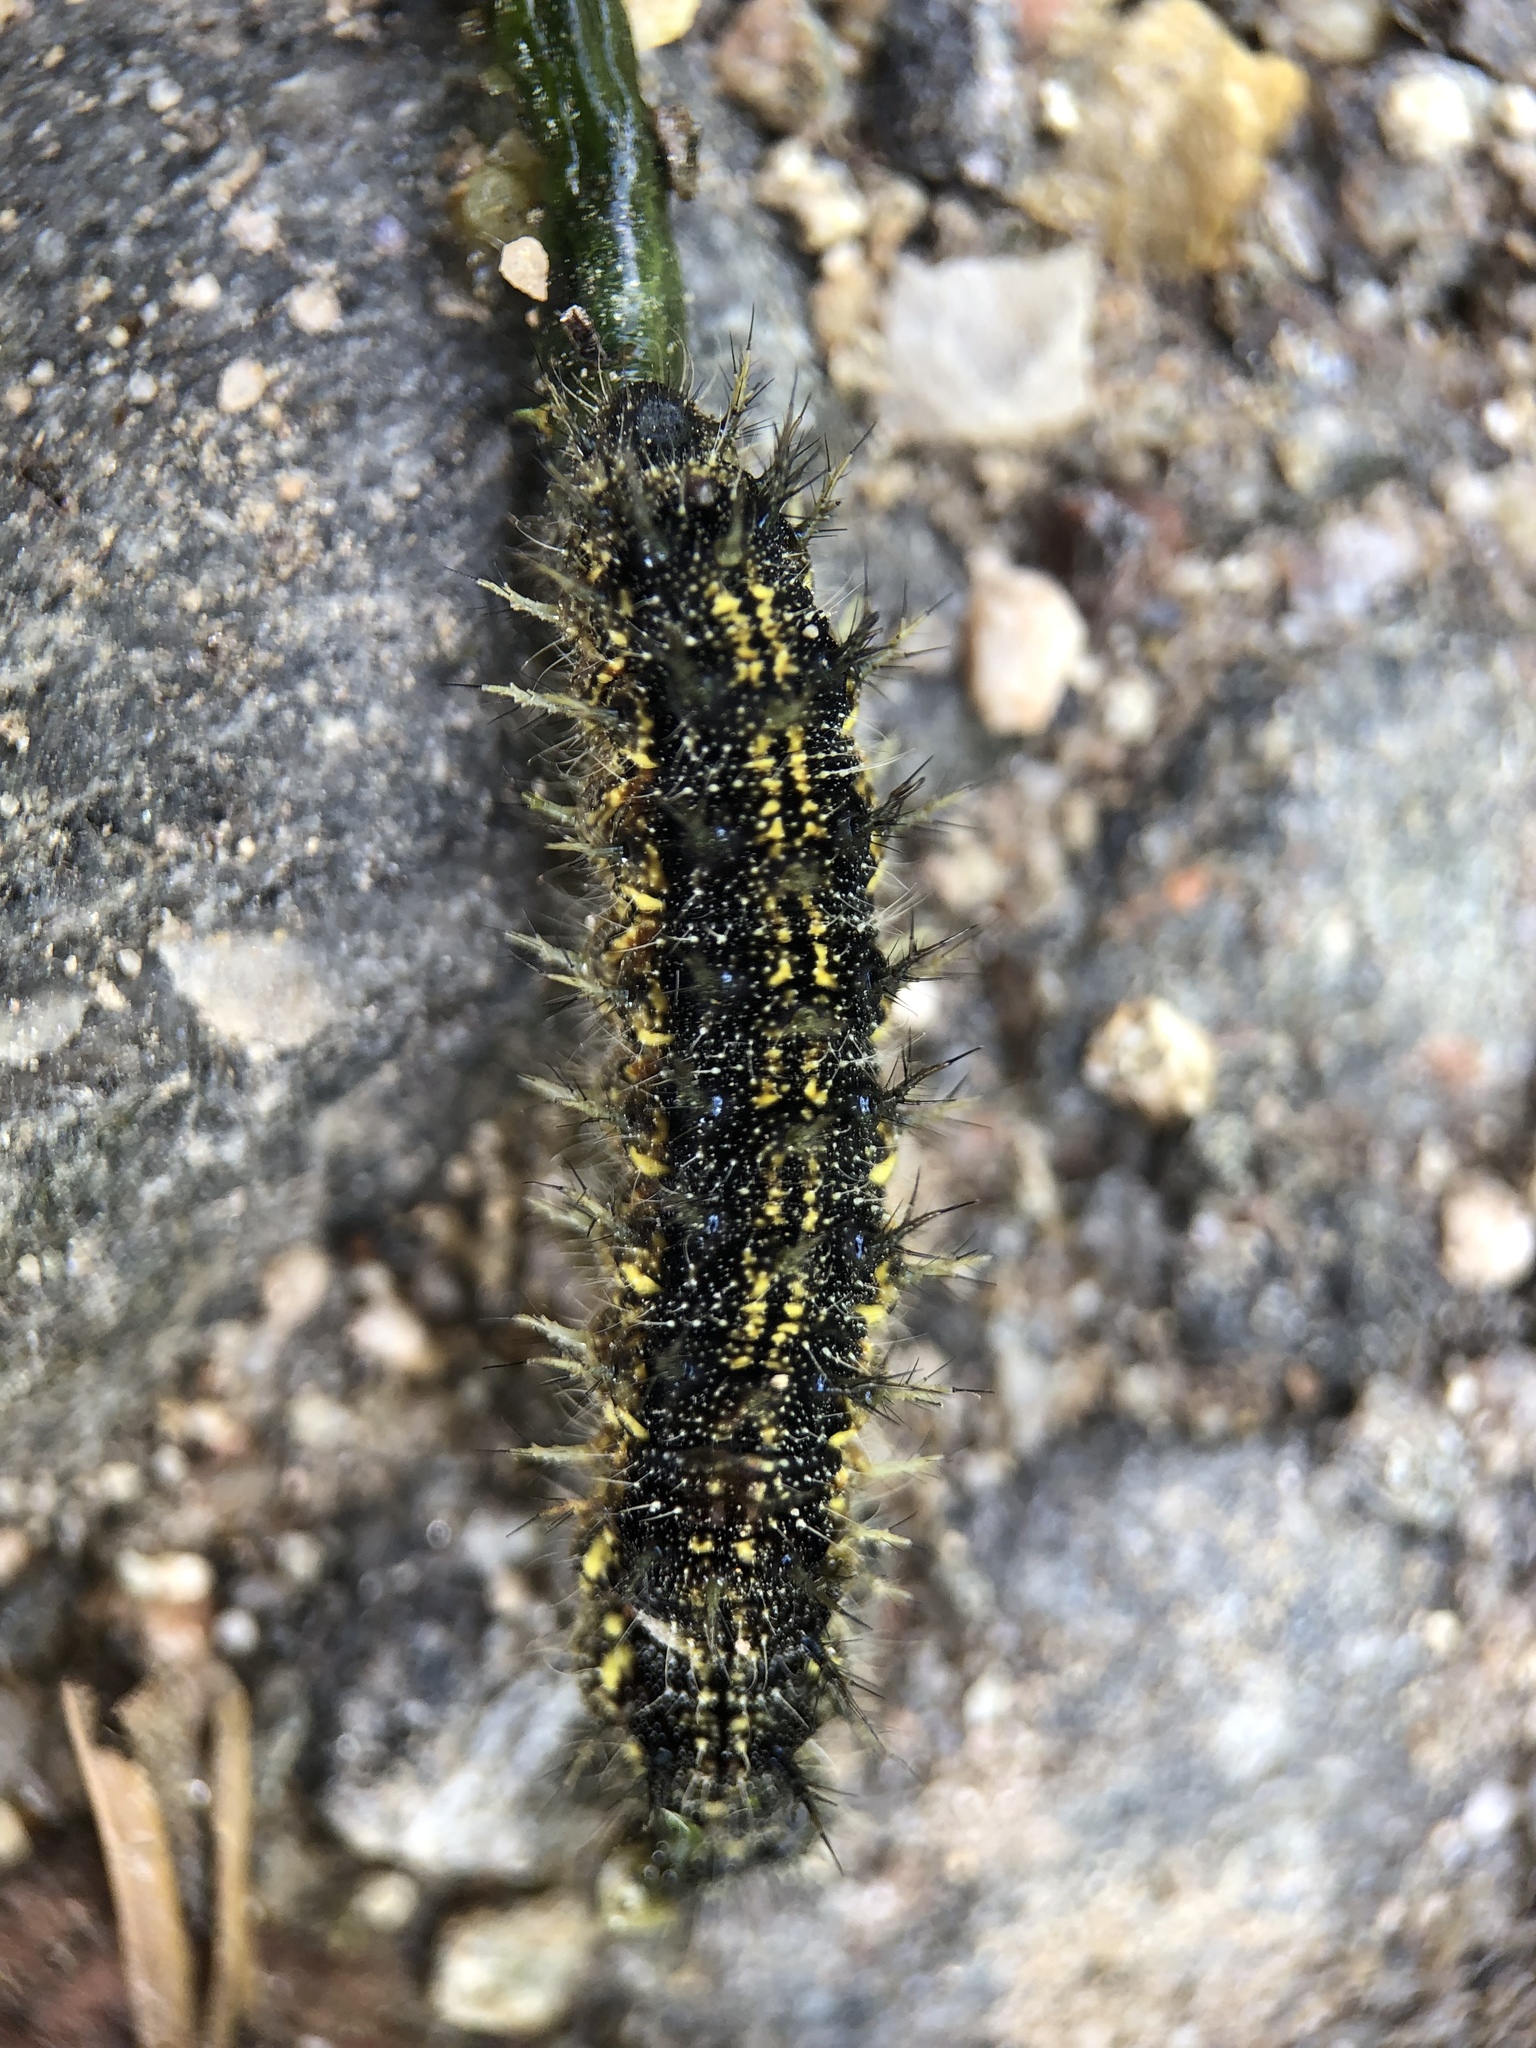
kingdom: Animalia
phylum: Arthropoda
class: Insecta
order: Lepidoptera
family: Nymphalidae
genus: Aglais
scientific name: Aglais urticae
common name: Small tortoiseshell
